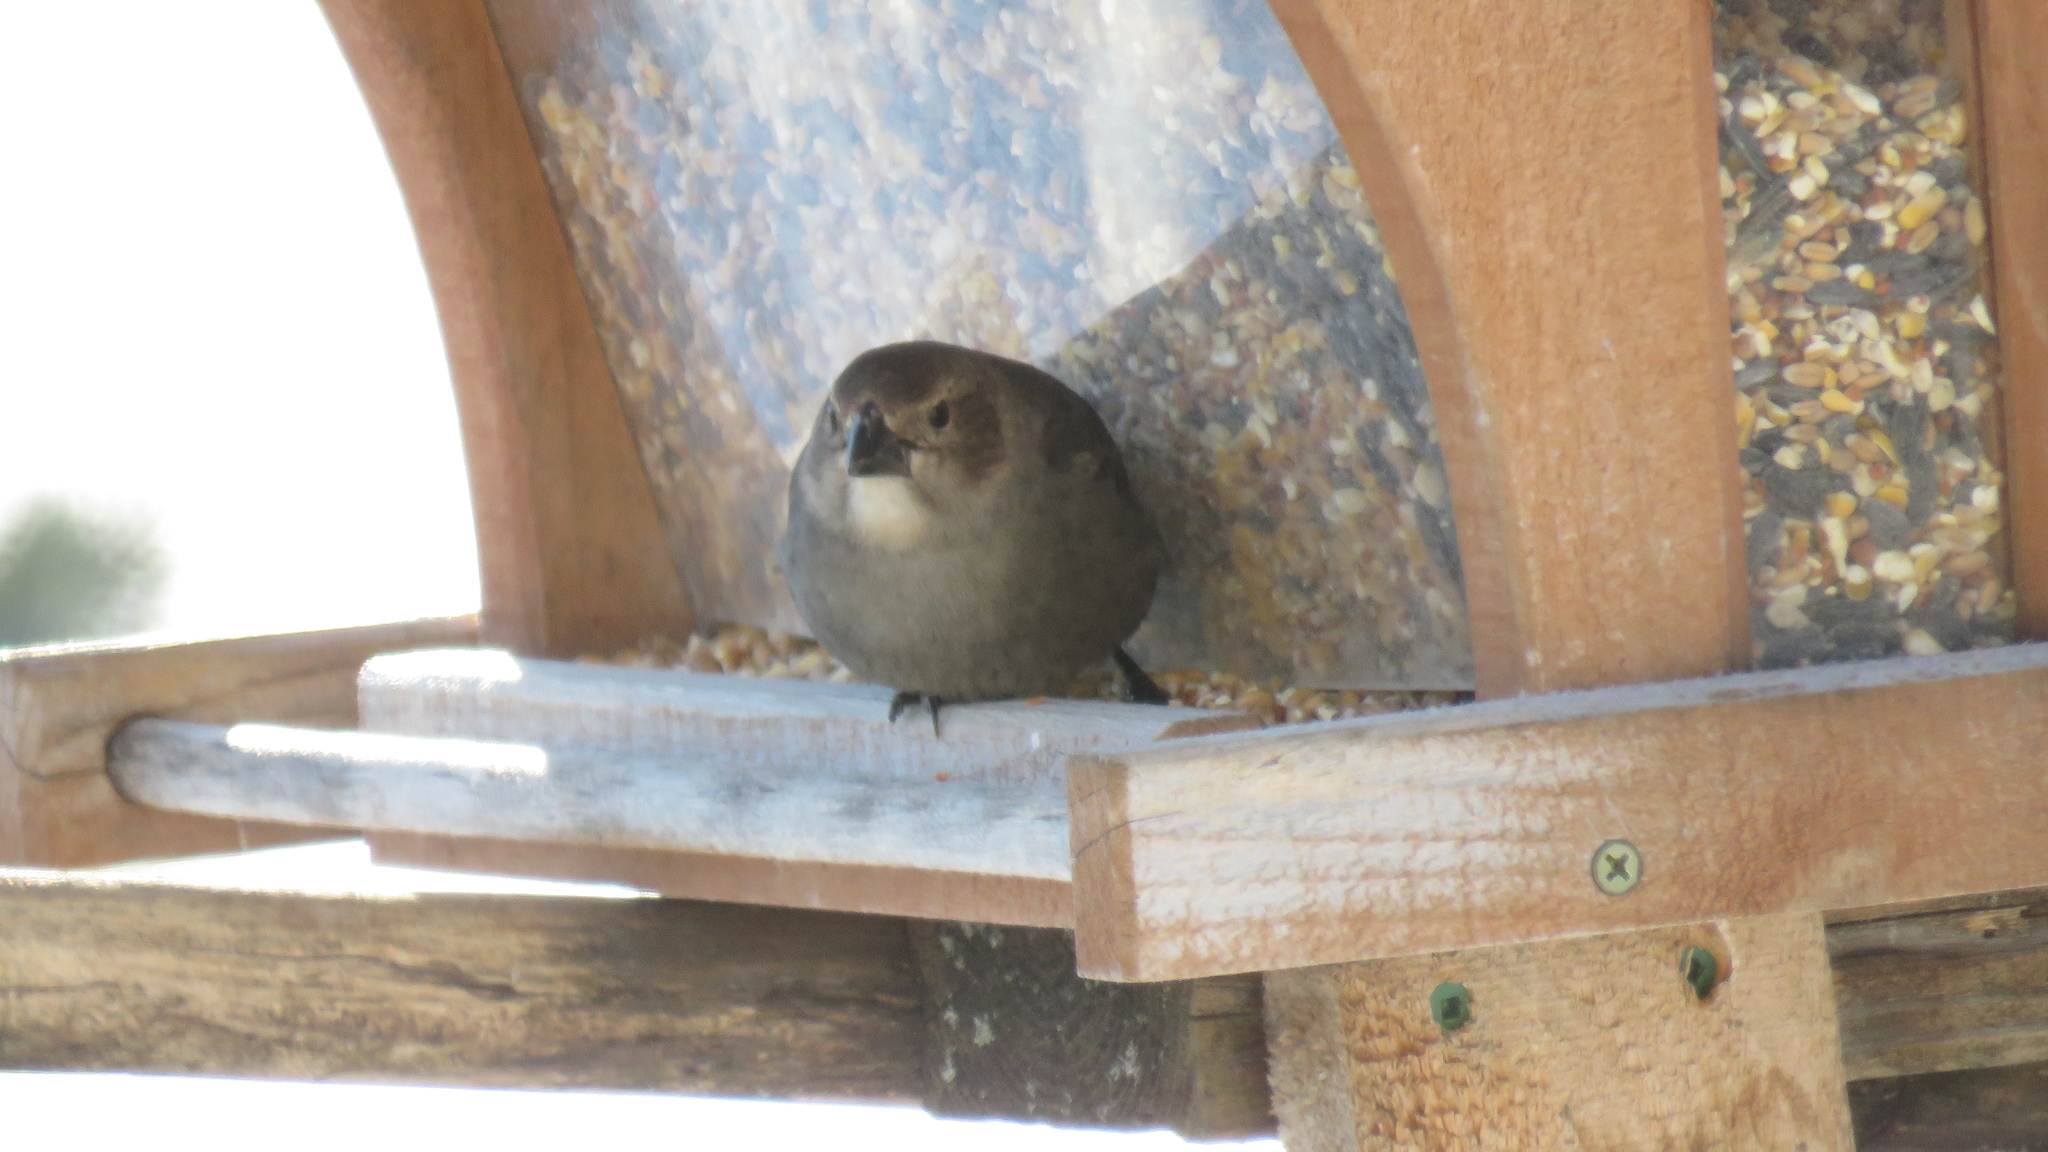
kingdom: Animalia
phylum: Chordata
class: Aves
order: Passeriformes
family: Icteridae
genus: Molothrus
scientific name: Molothrus ater
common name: Brown-headed cowbird
